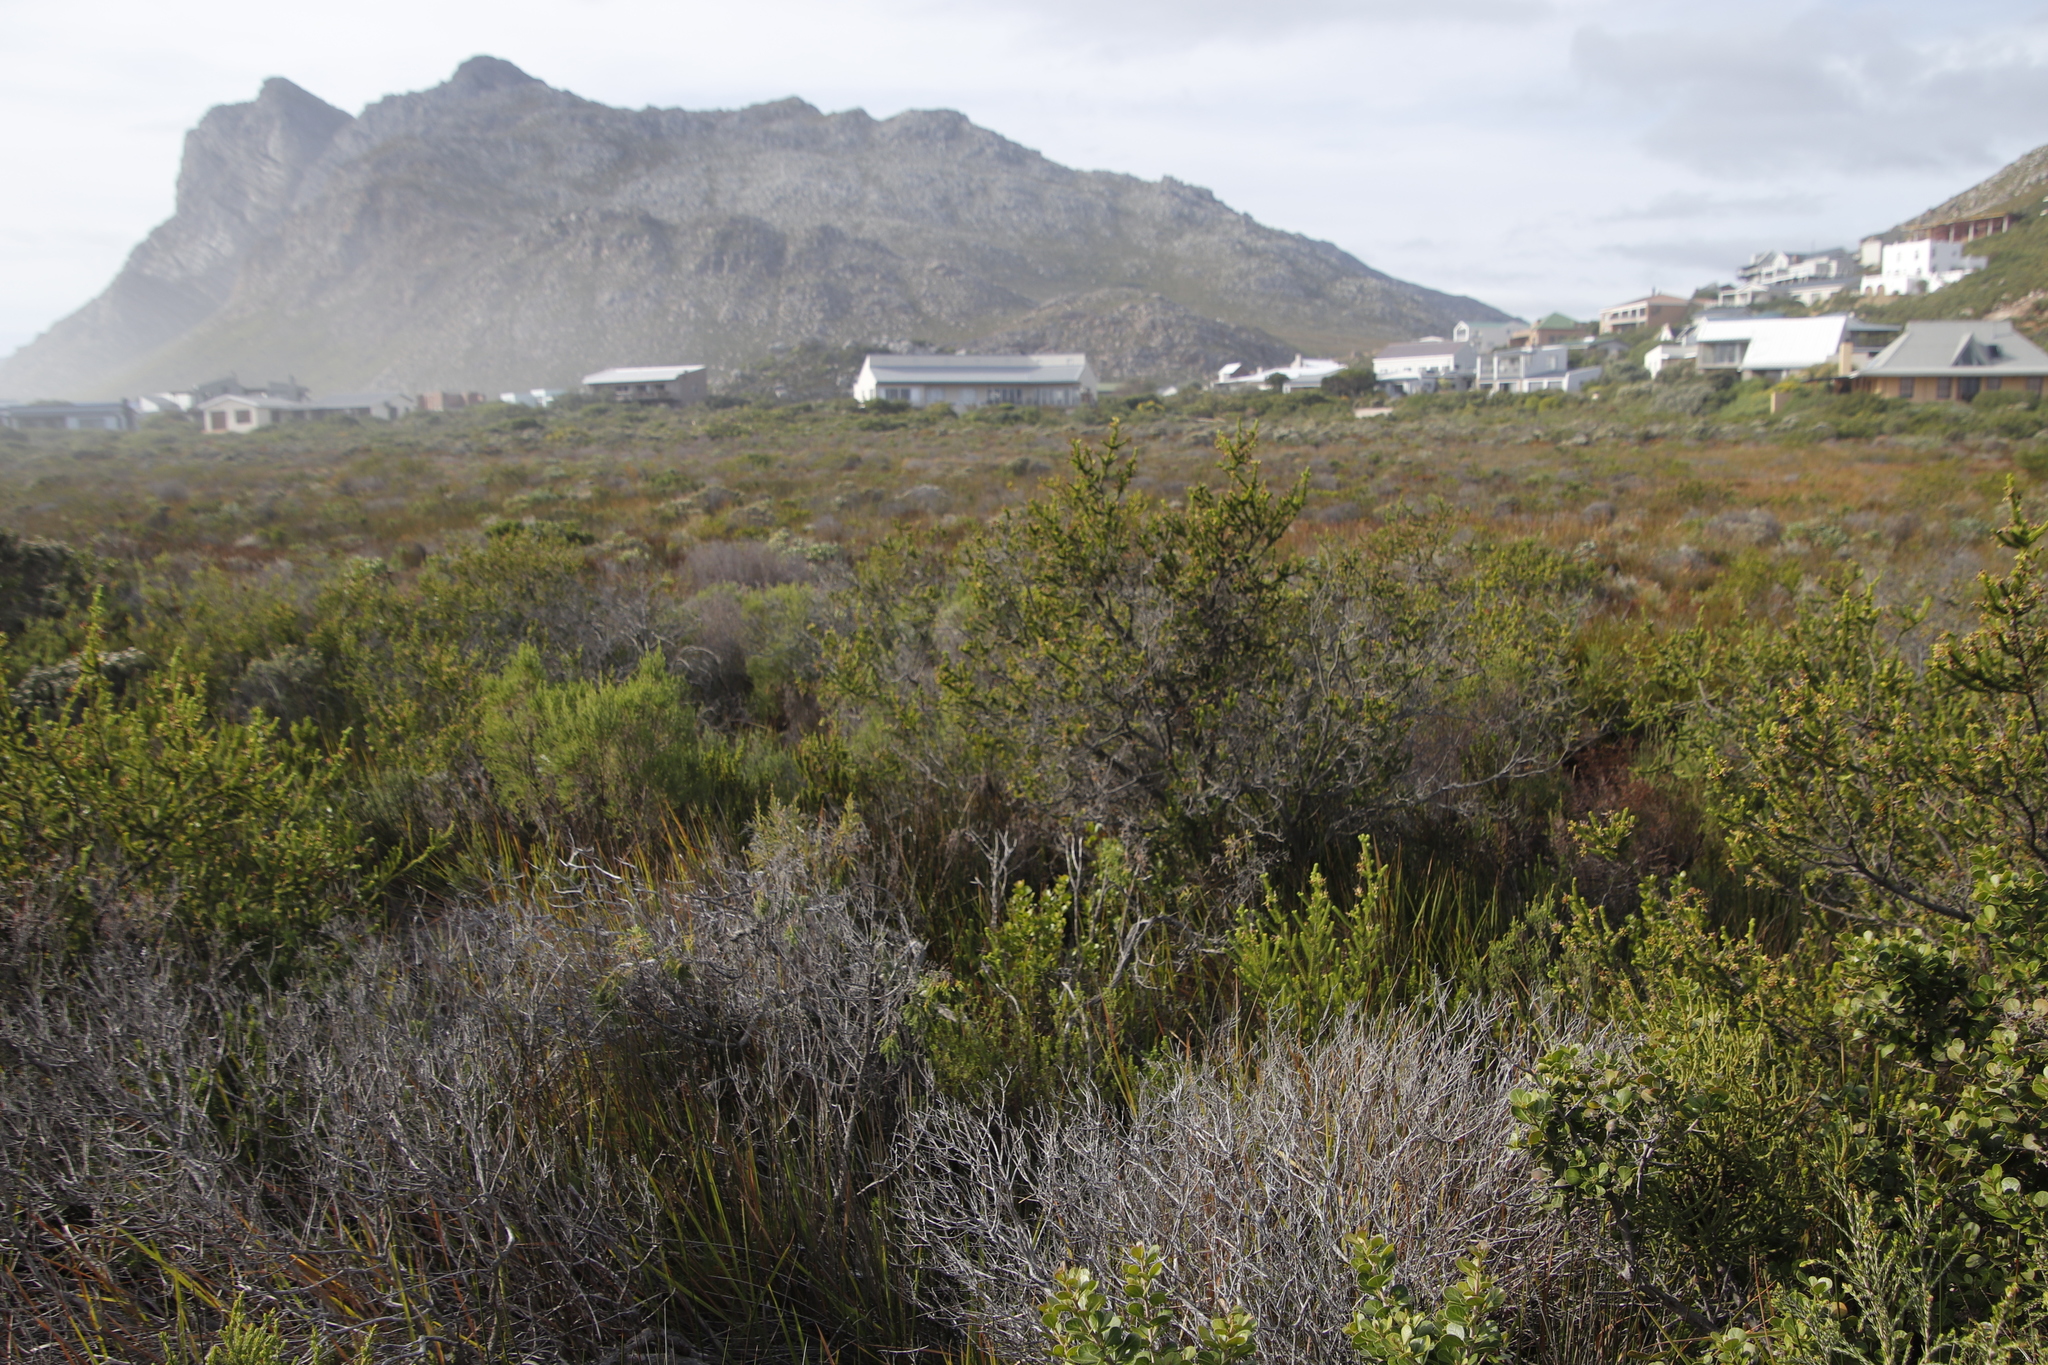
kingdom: Plantae
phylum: Tracheophyta
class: Magnoliopsida
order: Ericales
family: Ericaceae
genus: Erica
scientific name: Erica brachialis
